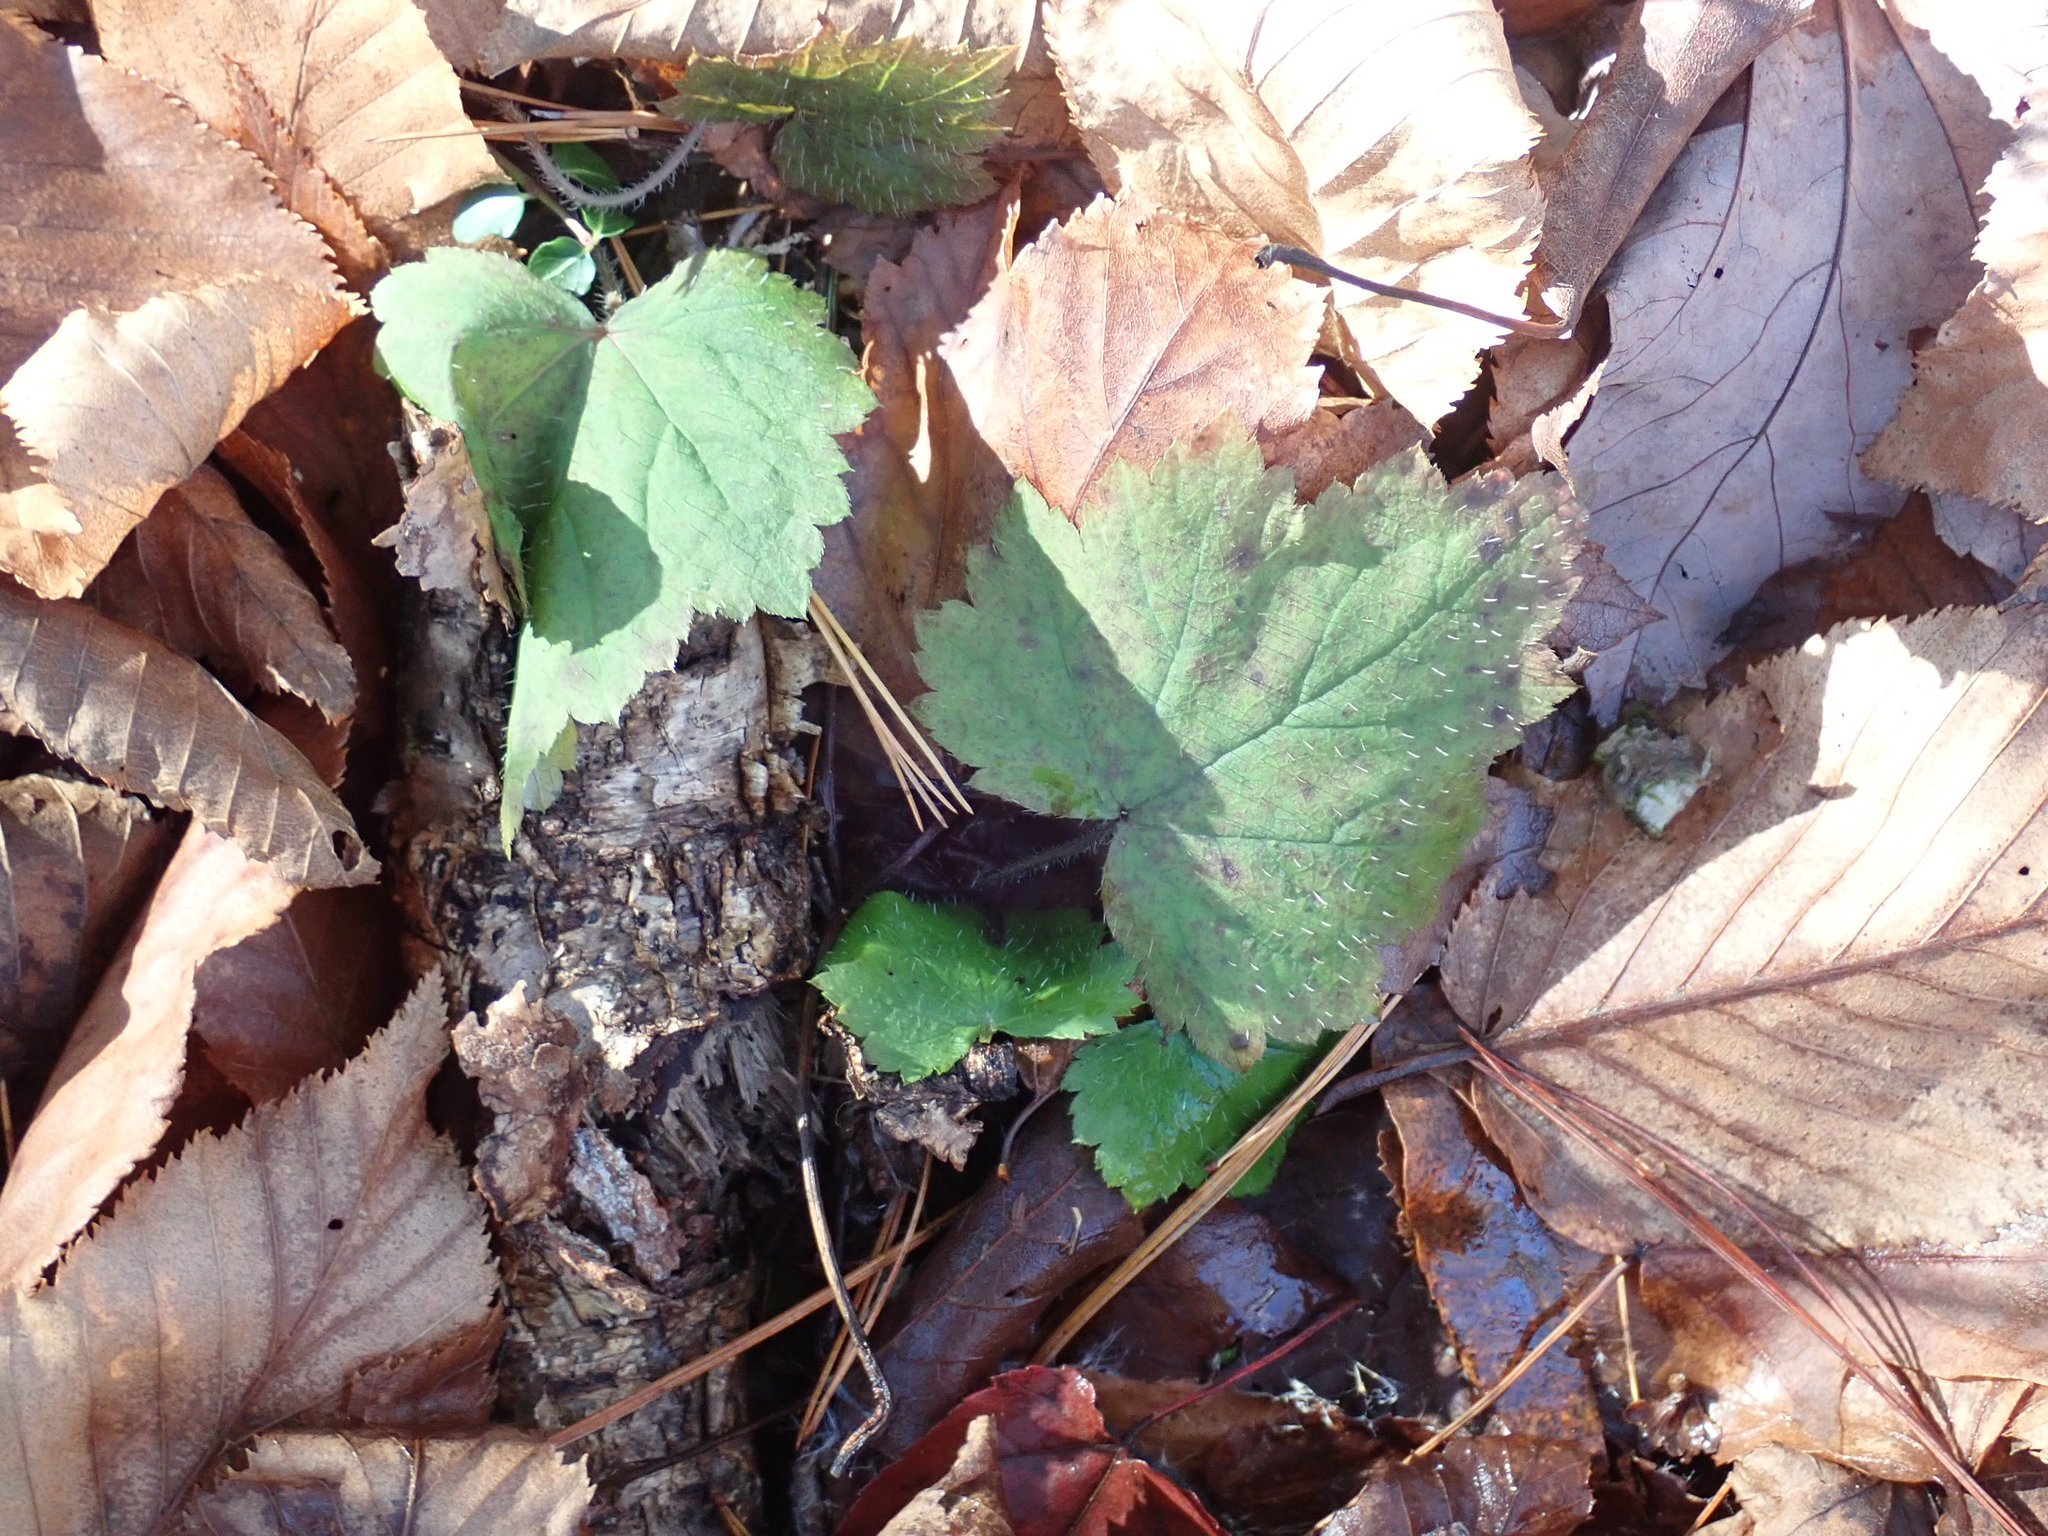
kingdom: Plantae
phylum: Tracheophyta
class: Magnoliopsida
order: Saxifragales
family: Saxifragaceae
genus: Tiarella
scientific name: Tiarella stolonifera
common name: Stoloniferous foamflower
